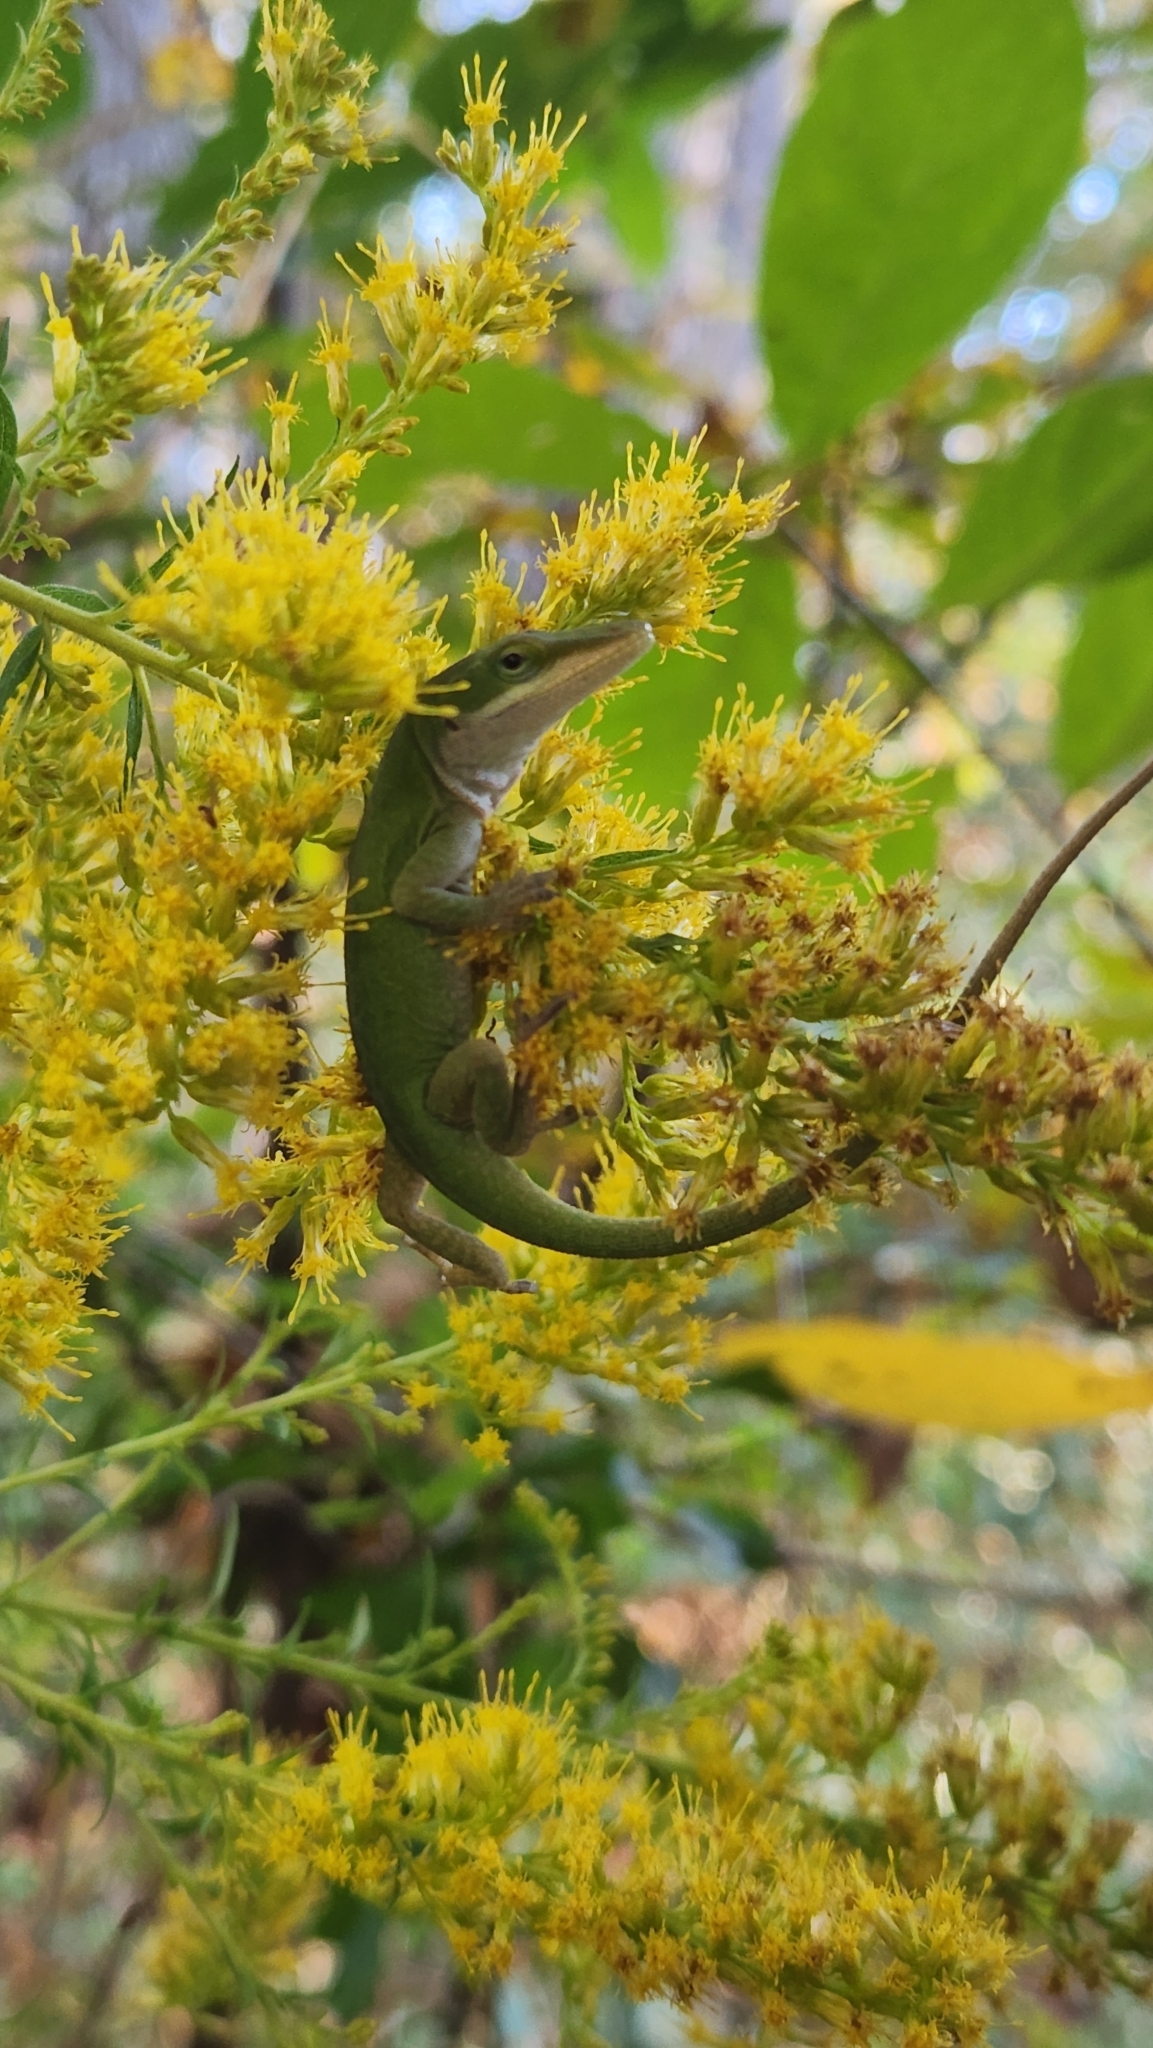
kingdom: Animalia
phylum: Chordata
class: Squamata
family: Dactyloidae
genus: Anolis
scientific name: Anolis carolinensis
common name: Green anole
